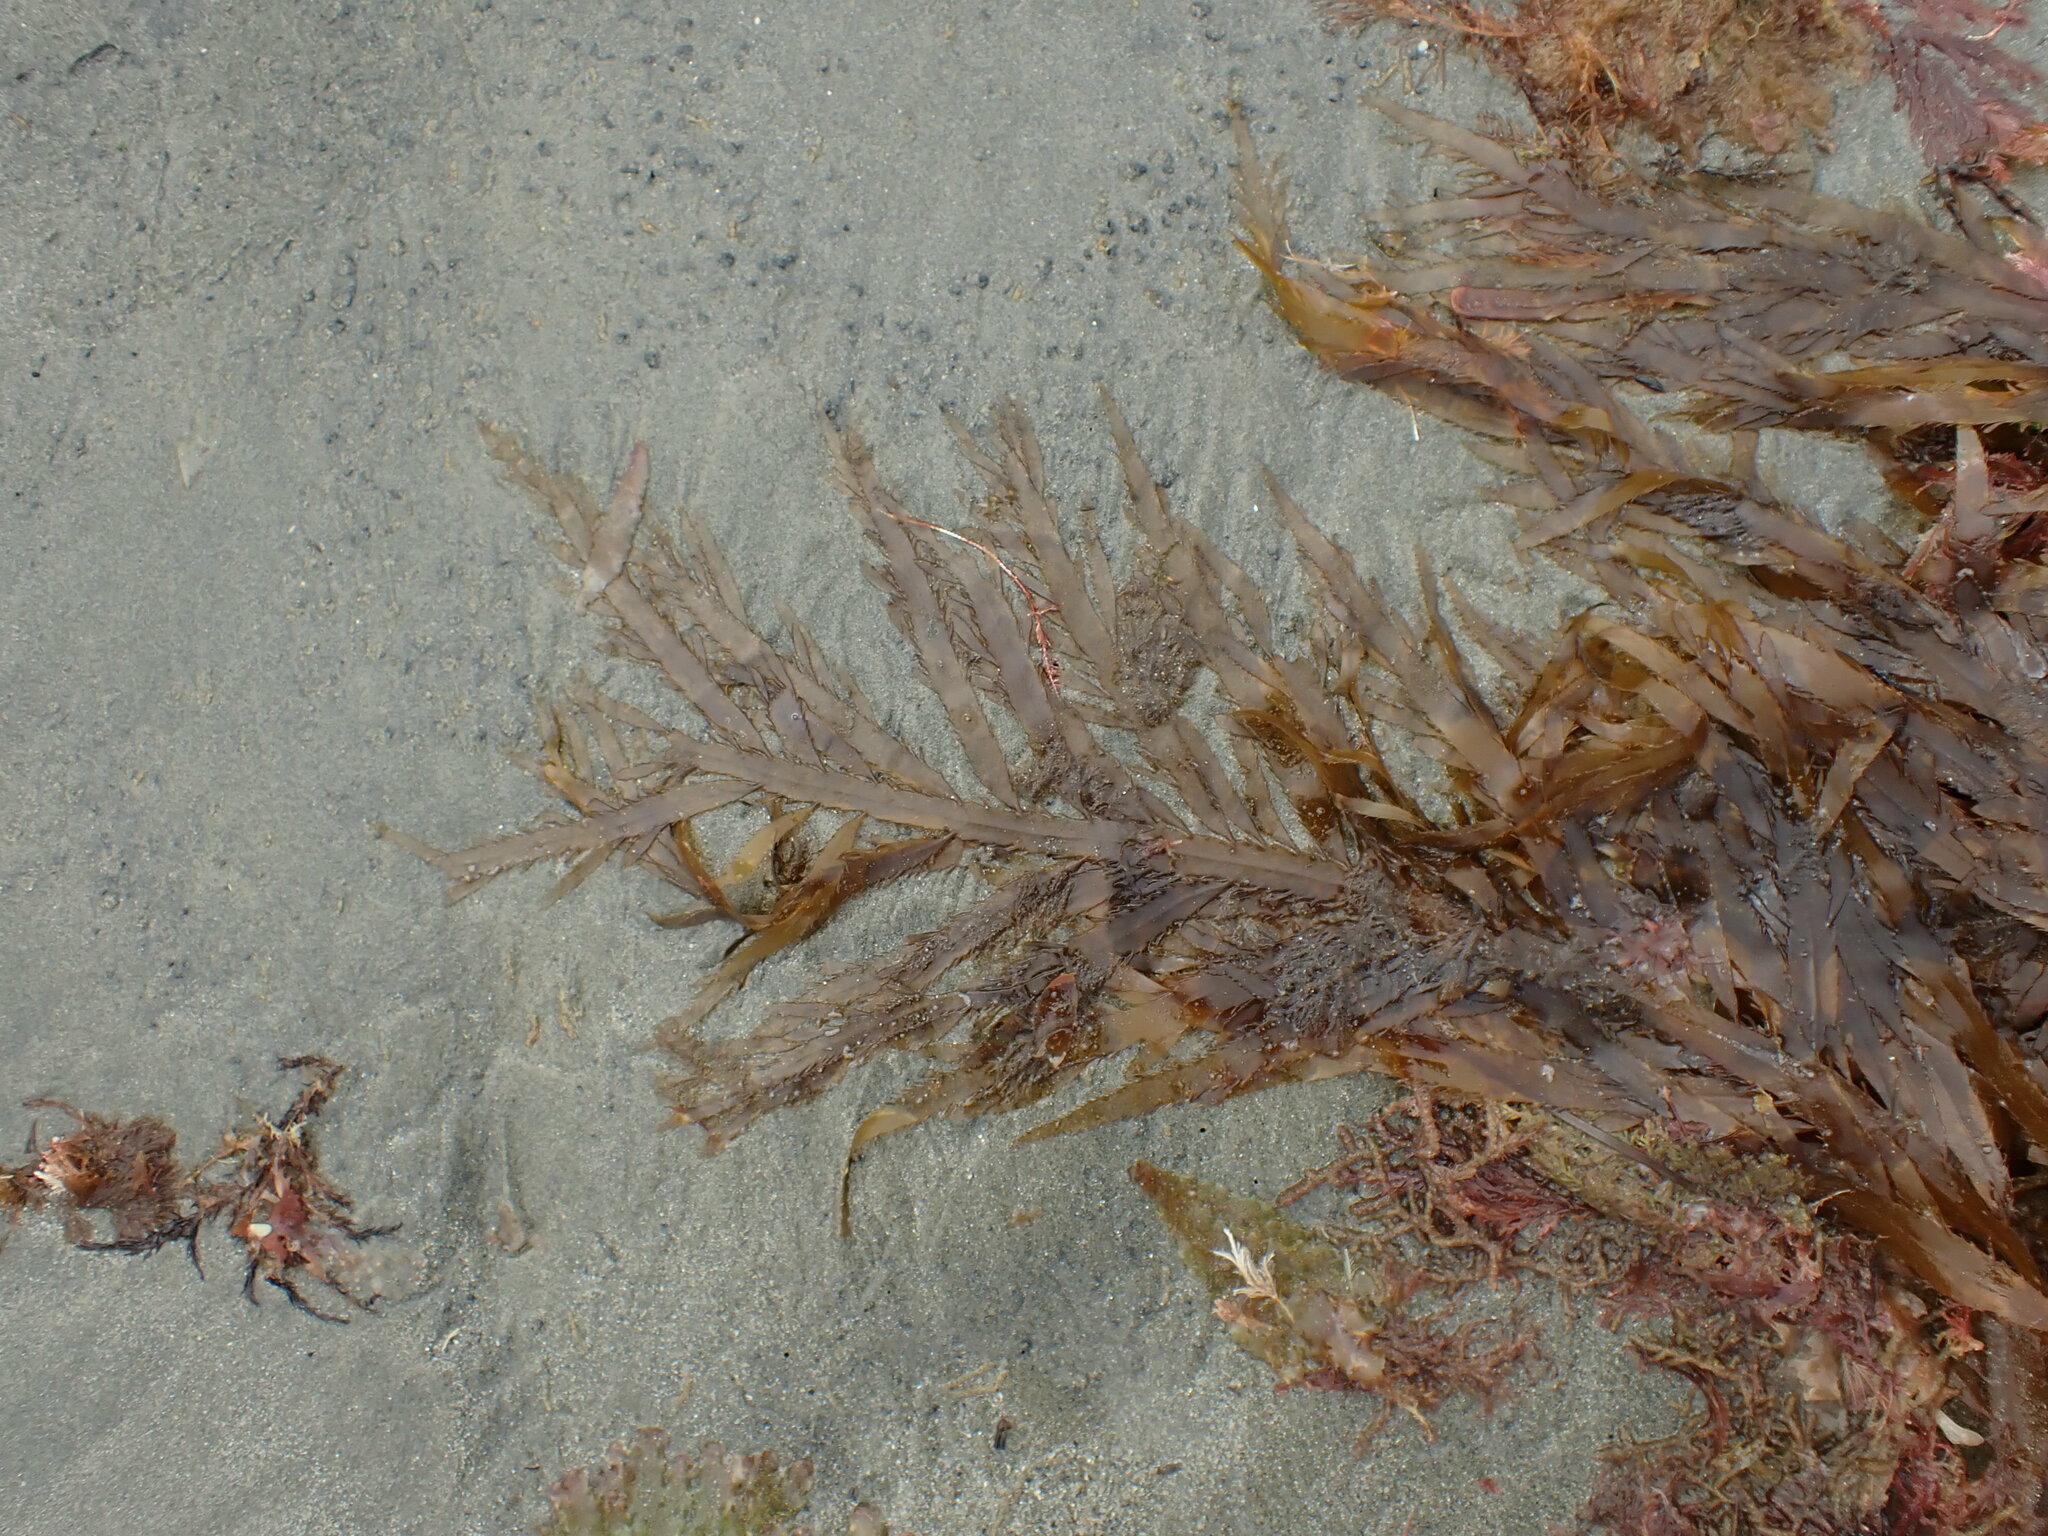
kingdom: Chromista
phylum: Ochrophyta
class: Phaeophyceae
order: Desmarestiales
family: Desmarestiaceae
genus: Desmarestia
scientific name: Desmarestia ligulata
